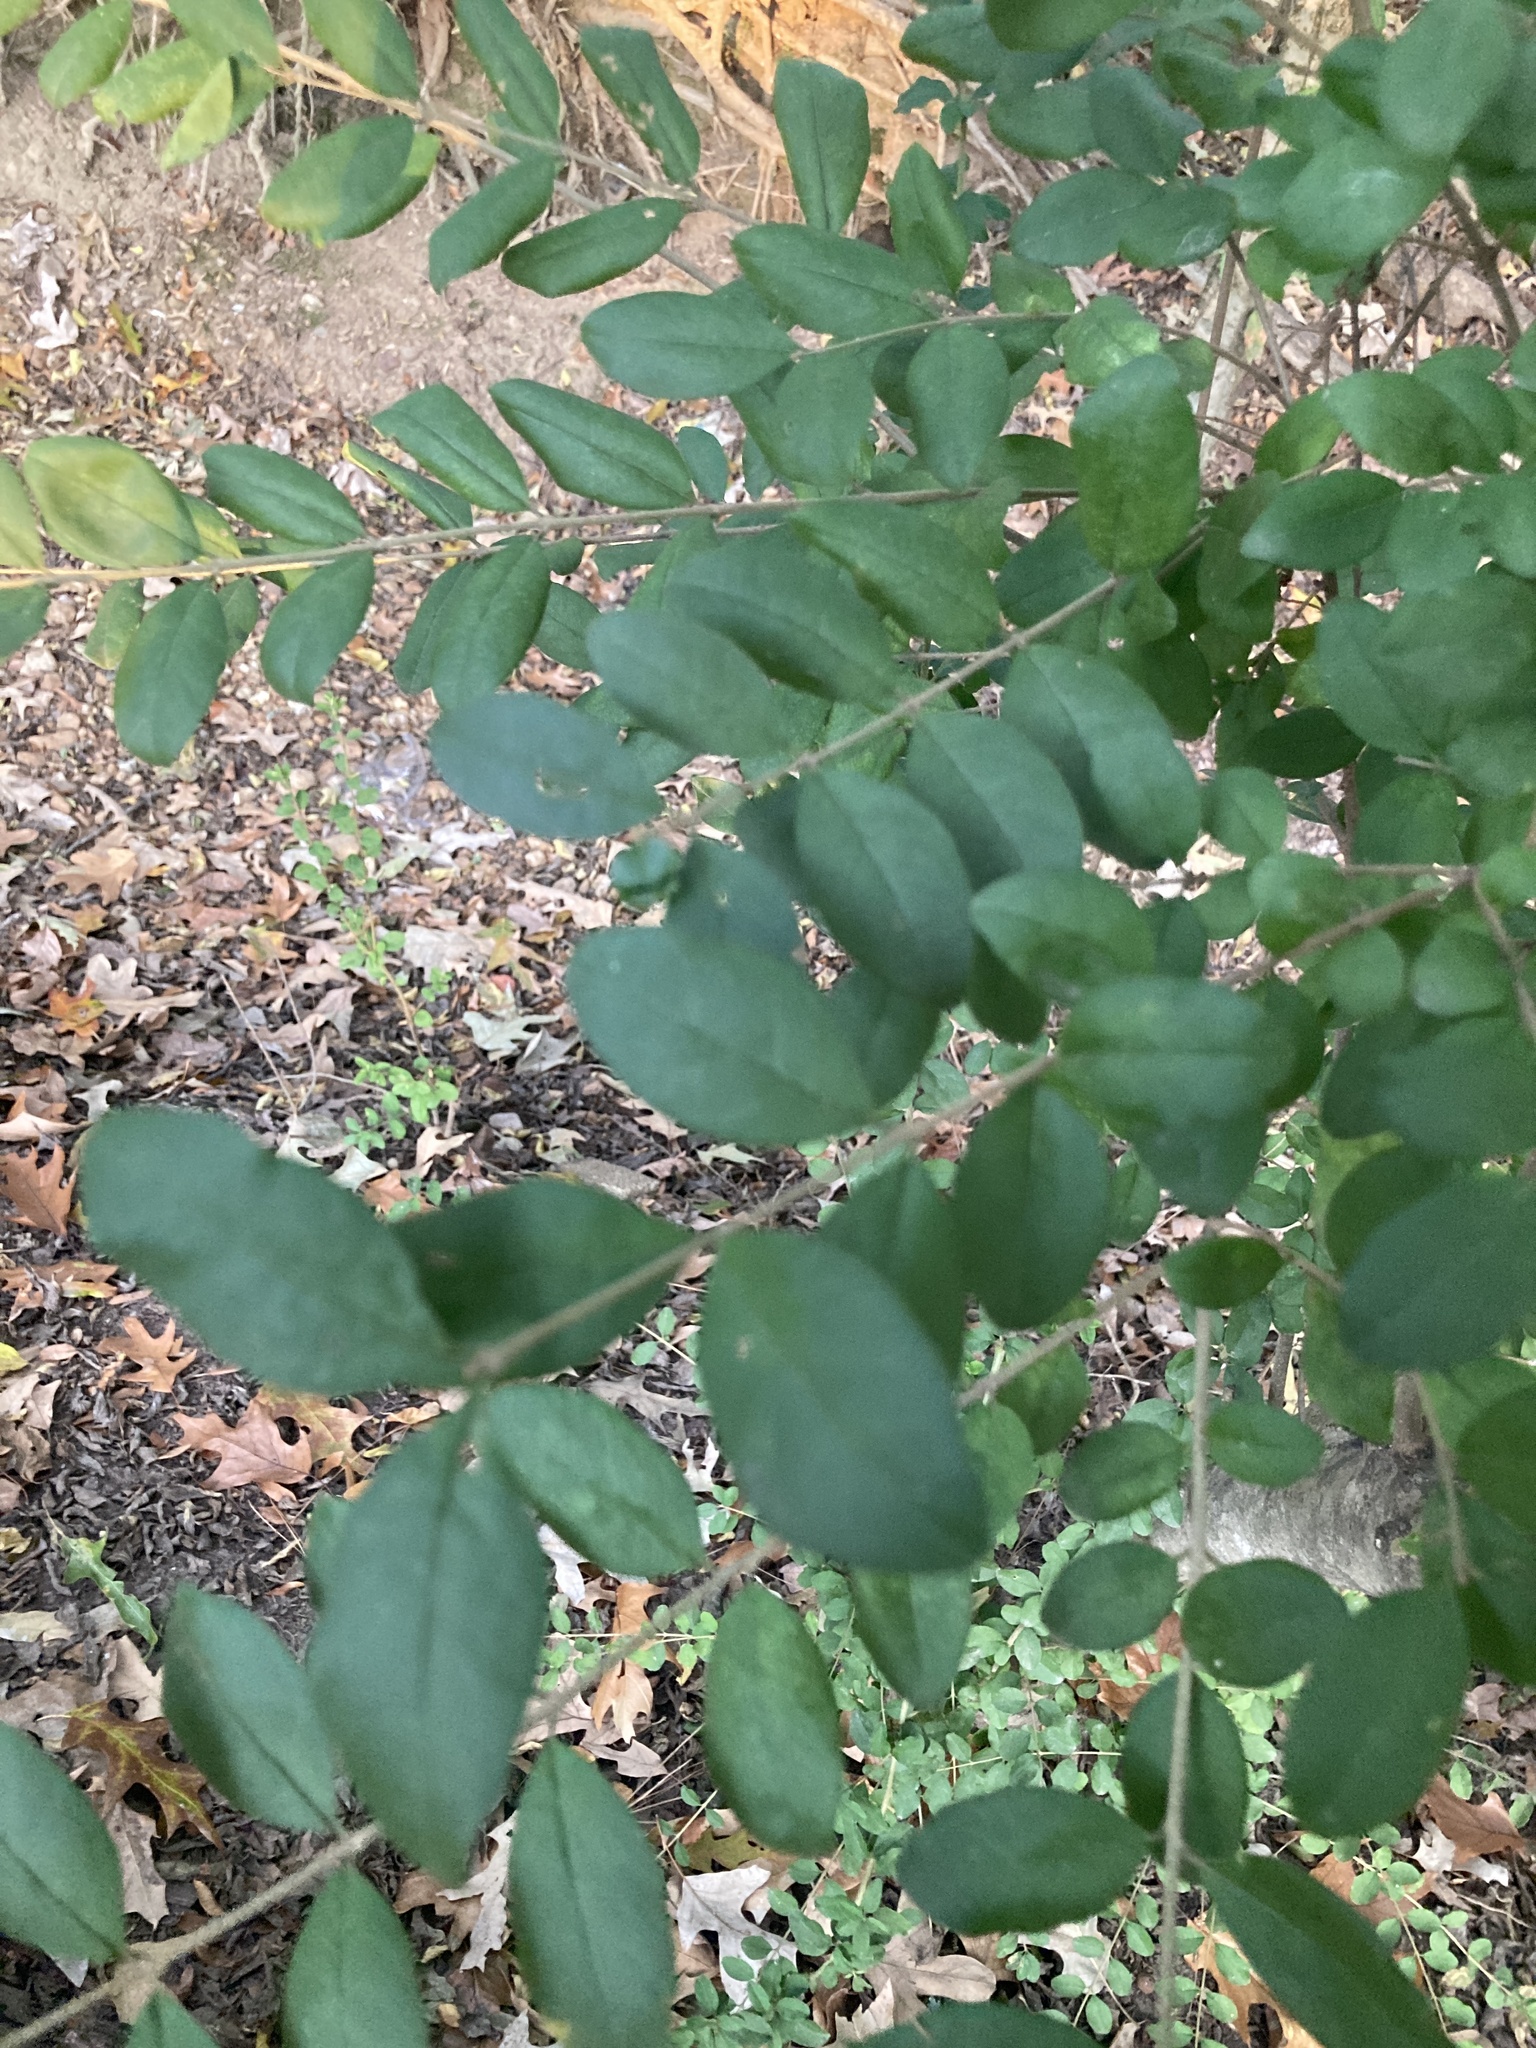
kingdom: Plantae
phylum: Tracheophyta
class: Magnoliopsida
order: Lamiales
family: Oleaceae
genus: Ligustrum
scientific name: Ligustrum sinense
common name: Chinese privet
